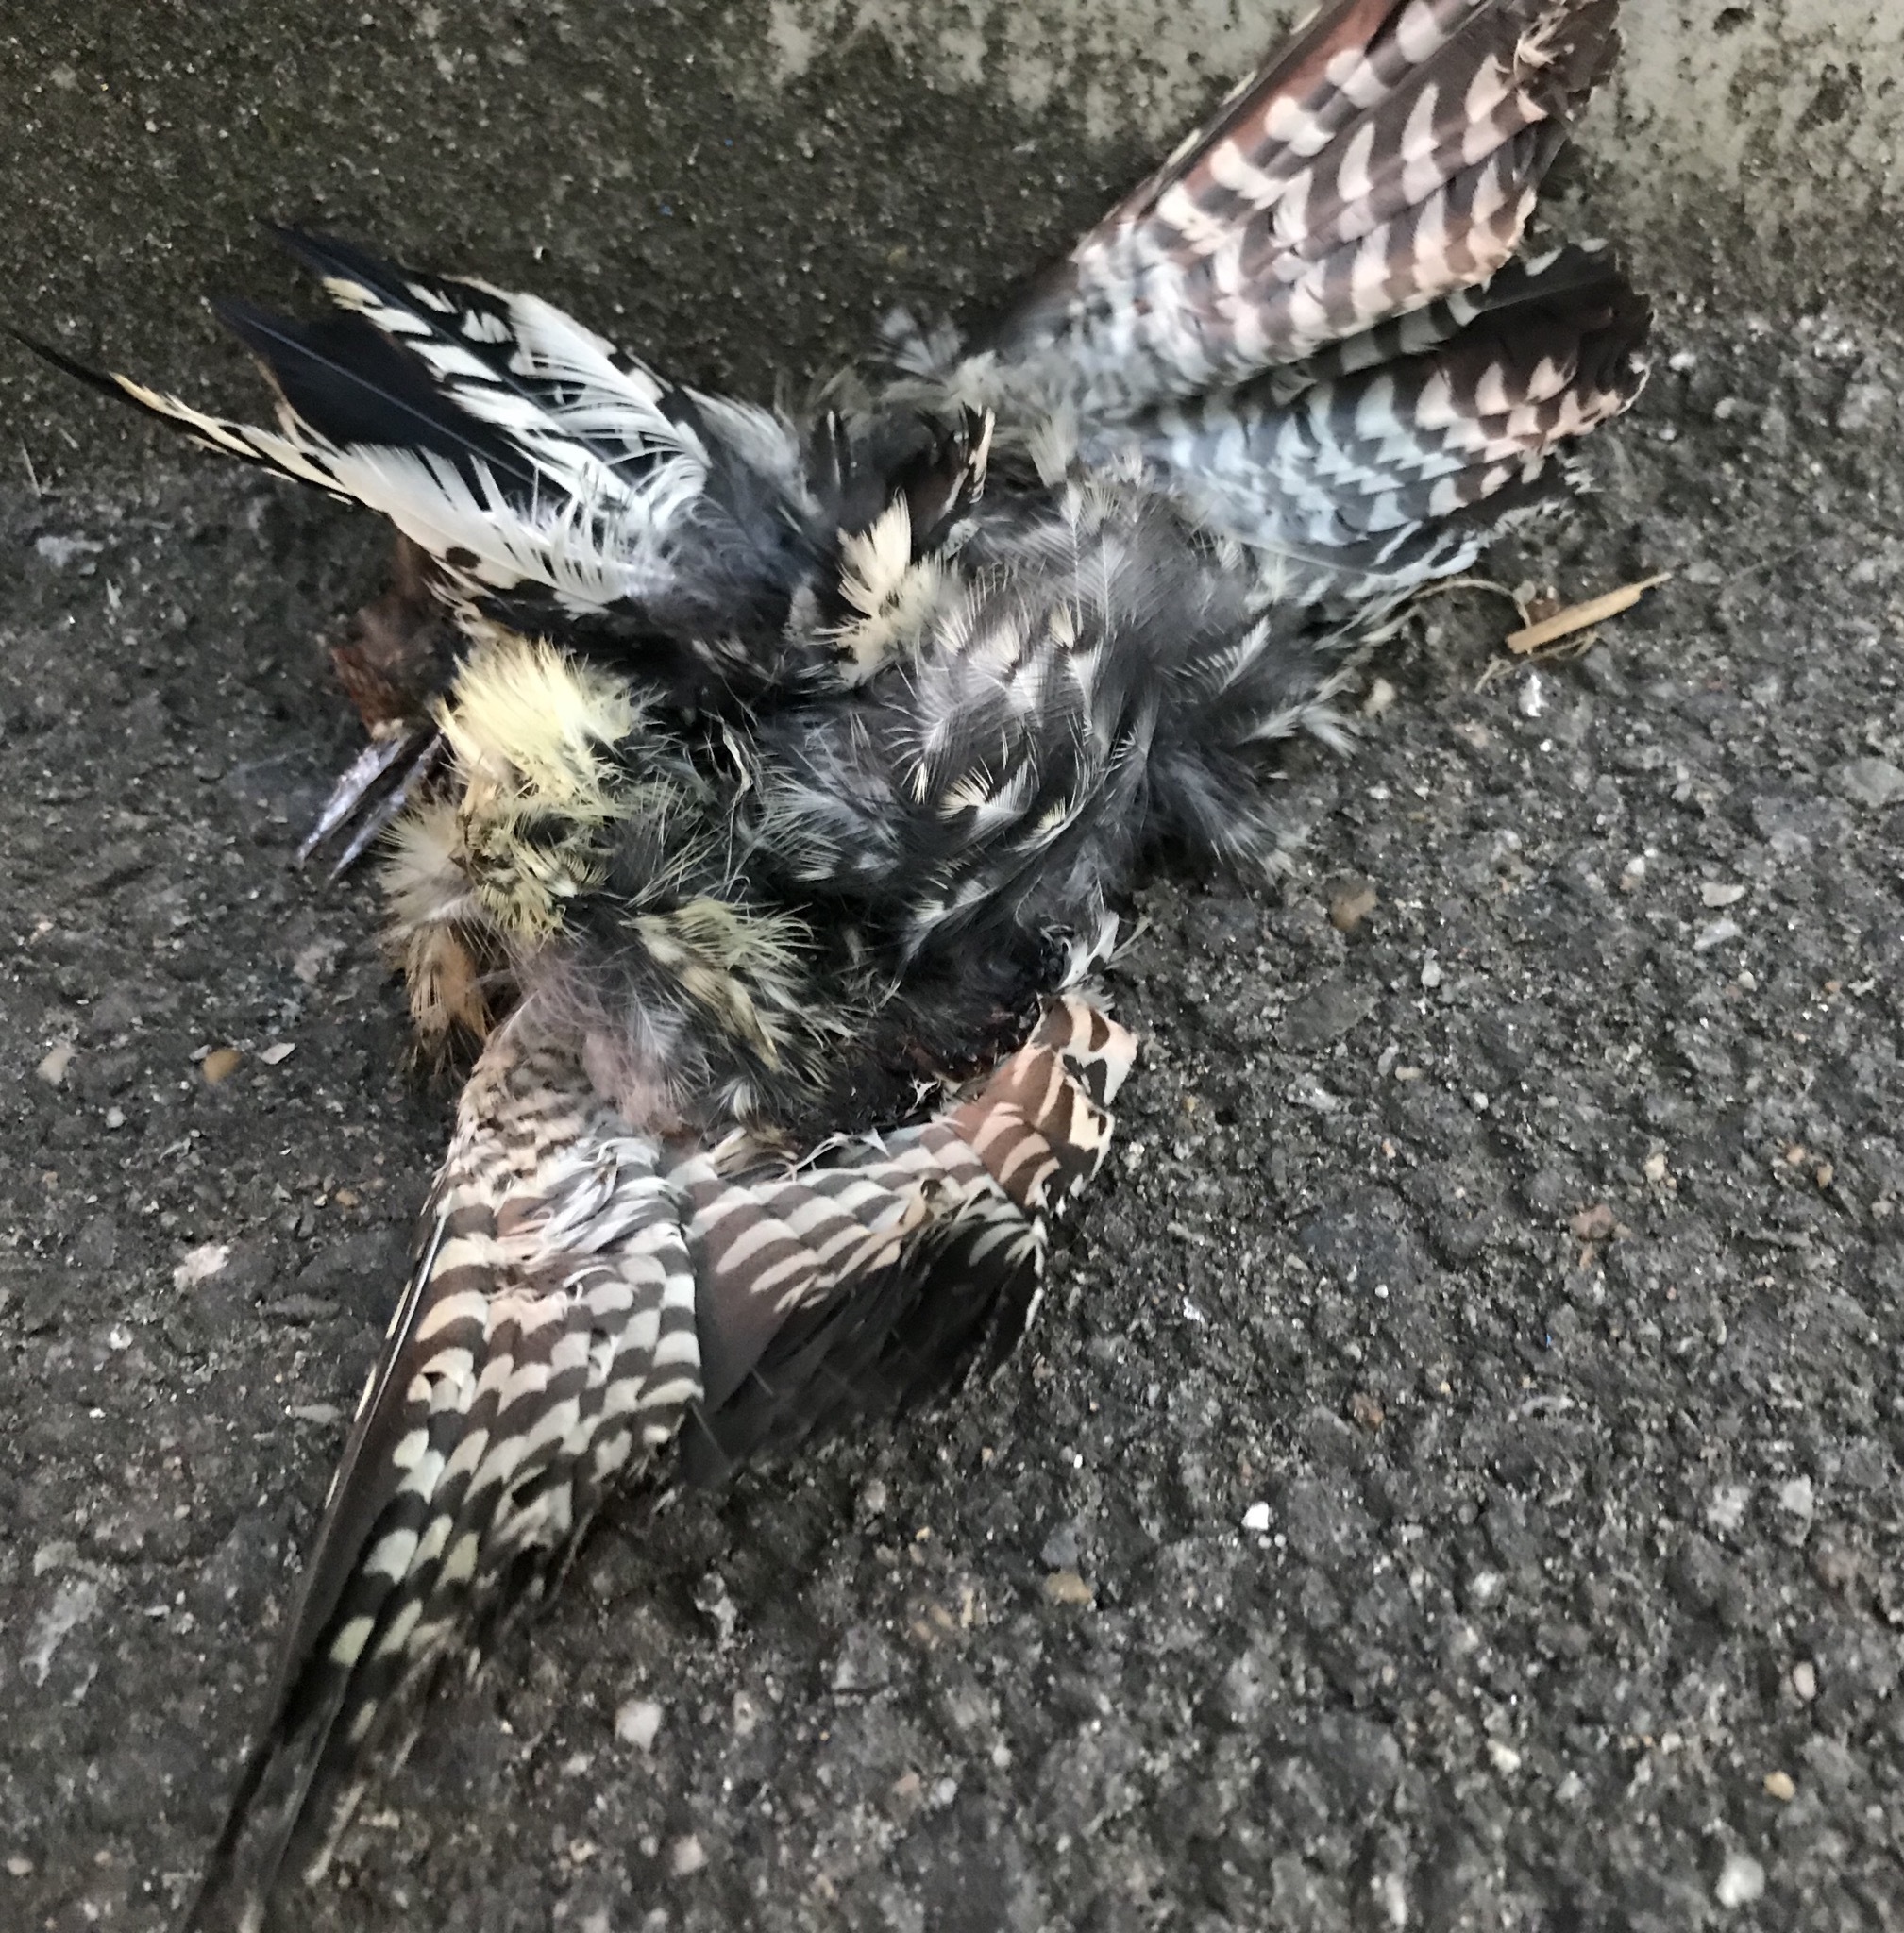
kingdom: Animalia
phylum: Chordata
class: Aves
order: Piciformes
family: Picidae
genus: Sphyrapicus
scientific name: Sphyrapicus varius
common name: Yellow-bellied sapsucker
